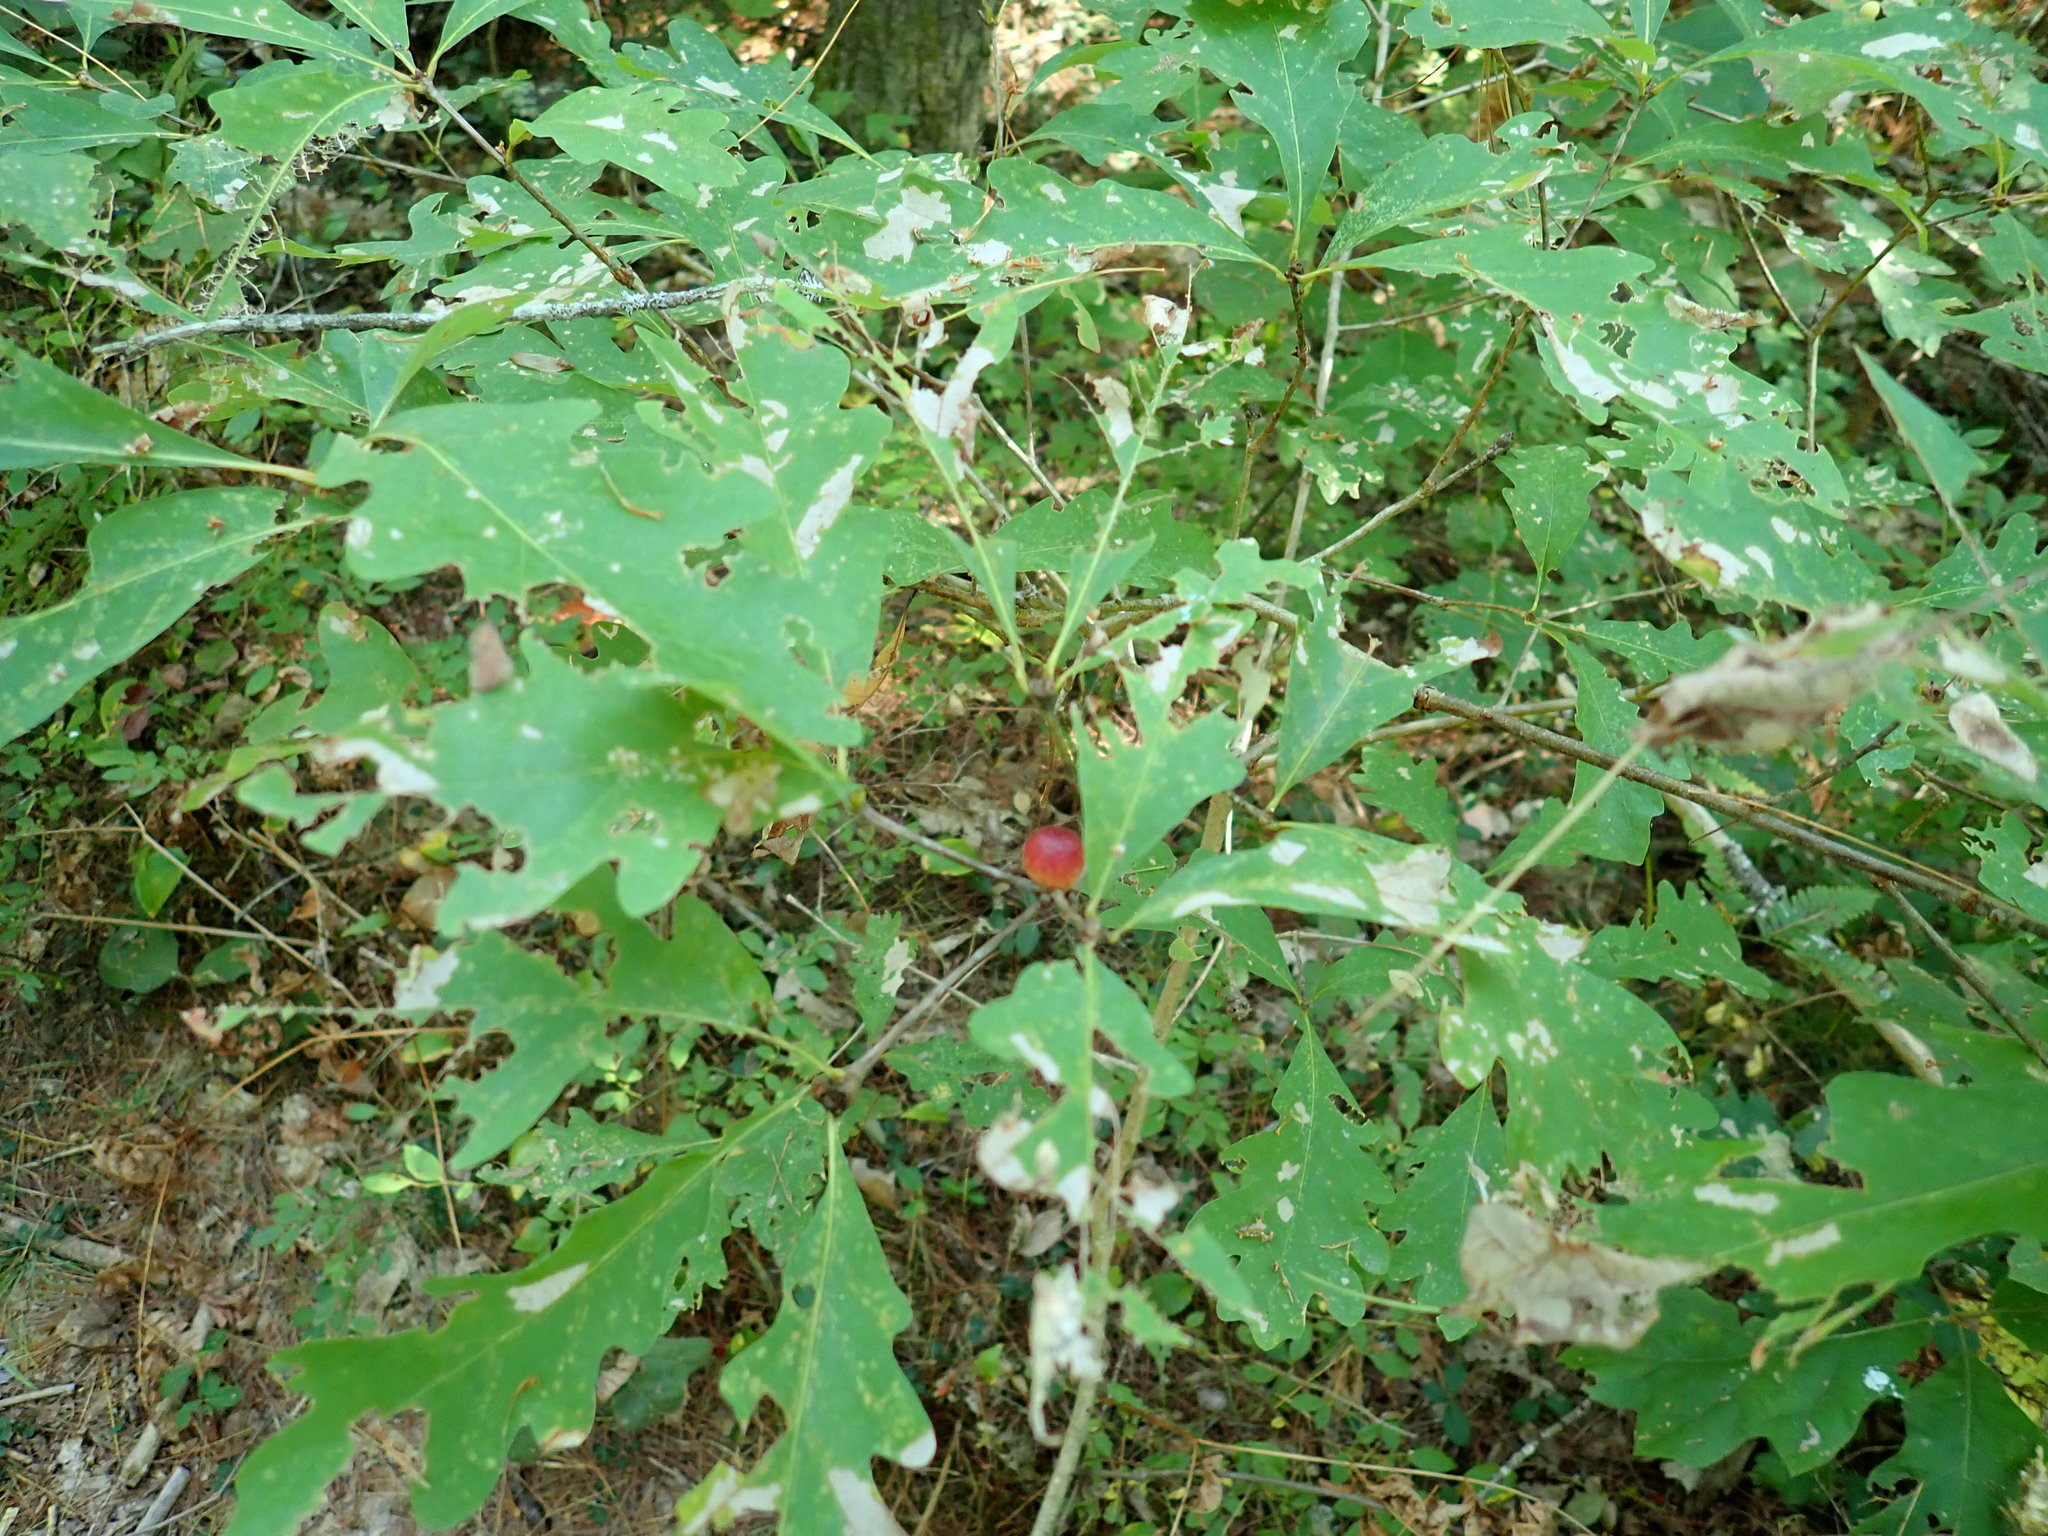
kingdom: Animalia
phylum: Arthropoda
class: Insecta
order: Hymenoptera
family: Cynipidae
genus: Disholcaspis
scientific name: Disholcaspis quercusglobulus
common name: Round bullet gall wasp
